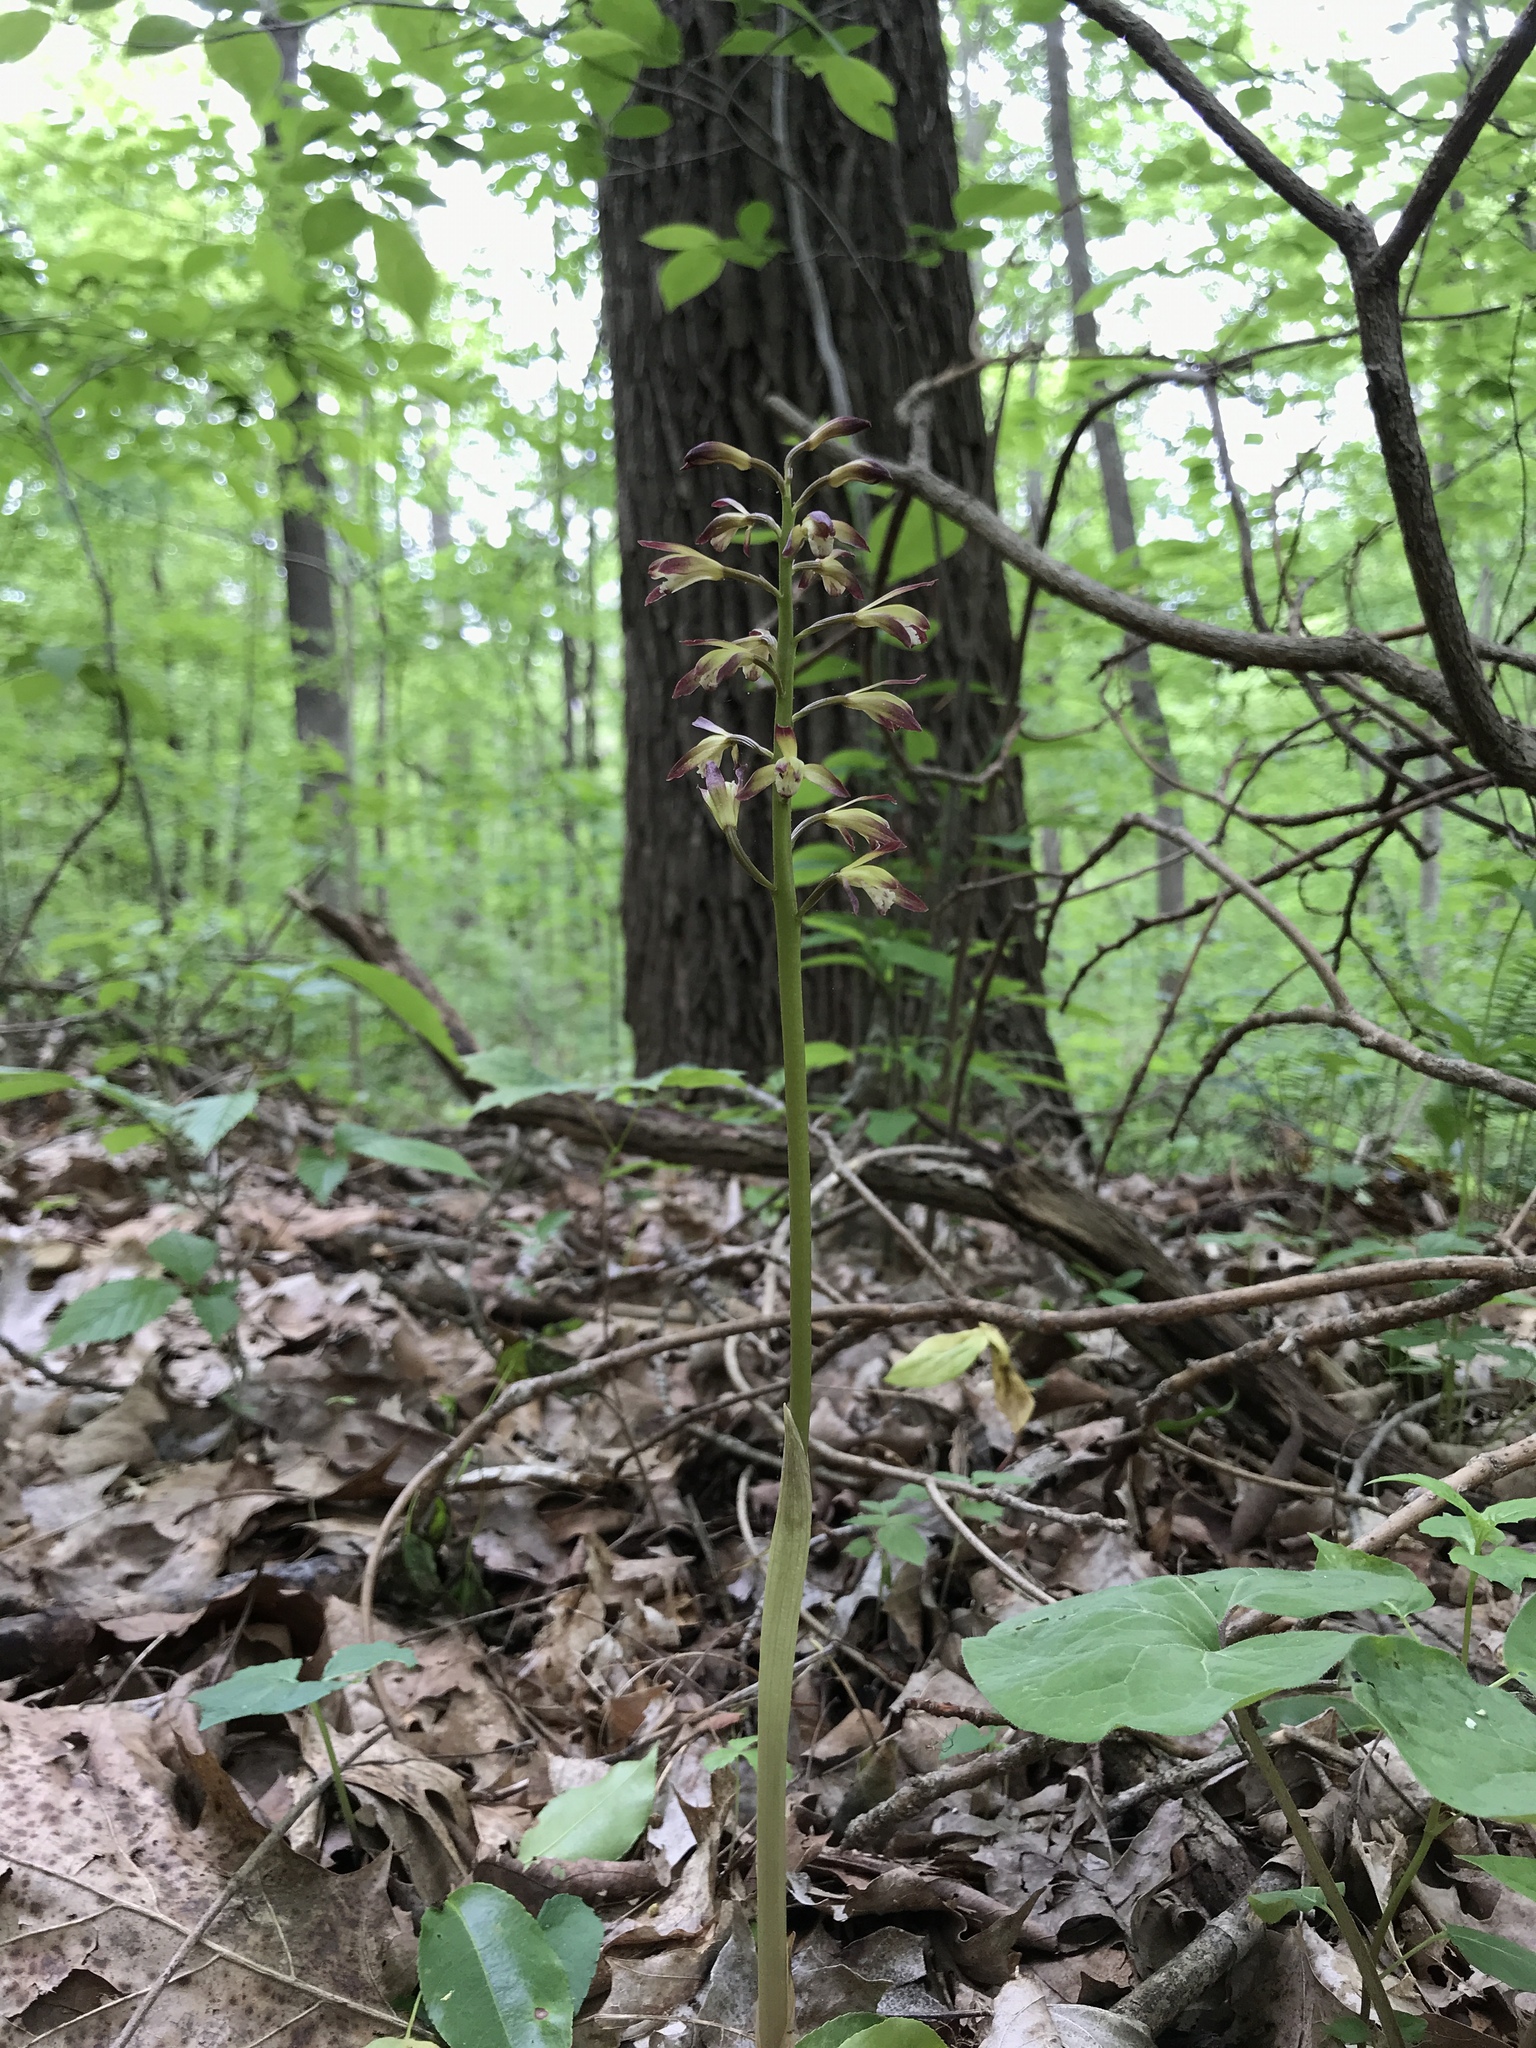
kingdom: Plantae
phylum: Tracheophyta
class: Liliopsida
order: Asparagales
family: Orchidaceae
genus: Aplectrum
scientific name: Aplectrum hyemale
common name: Adam-and-eve
